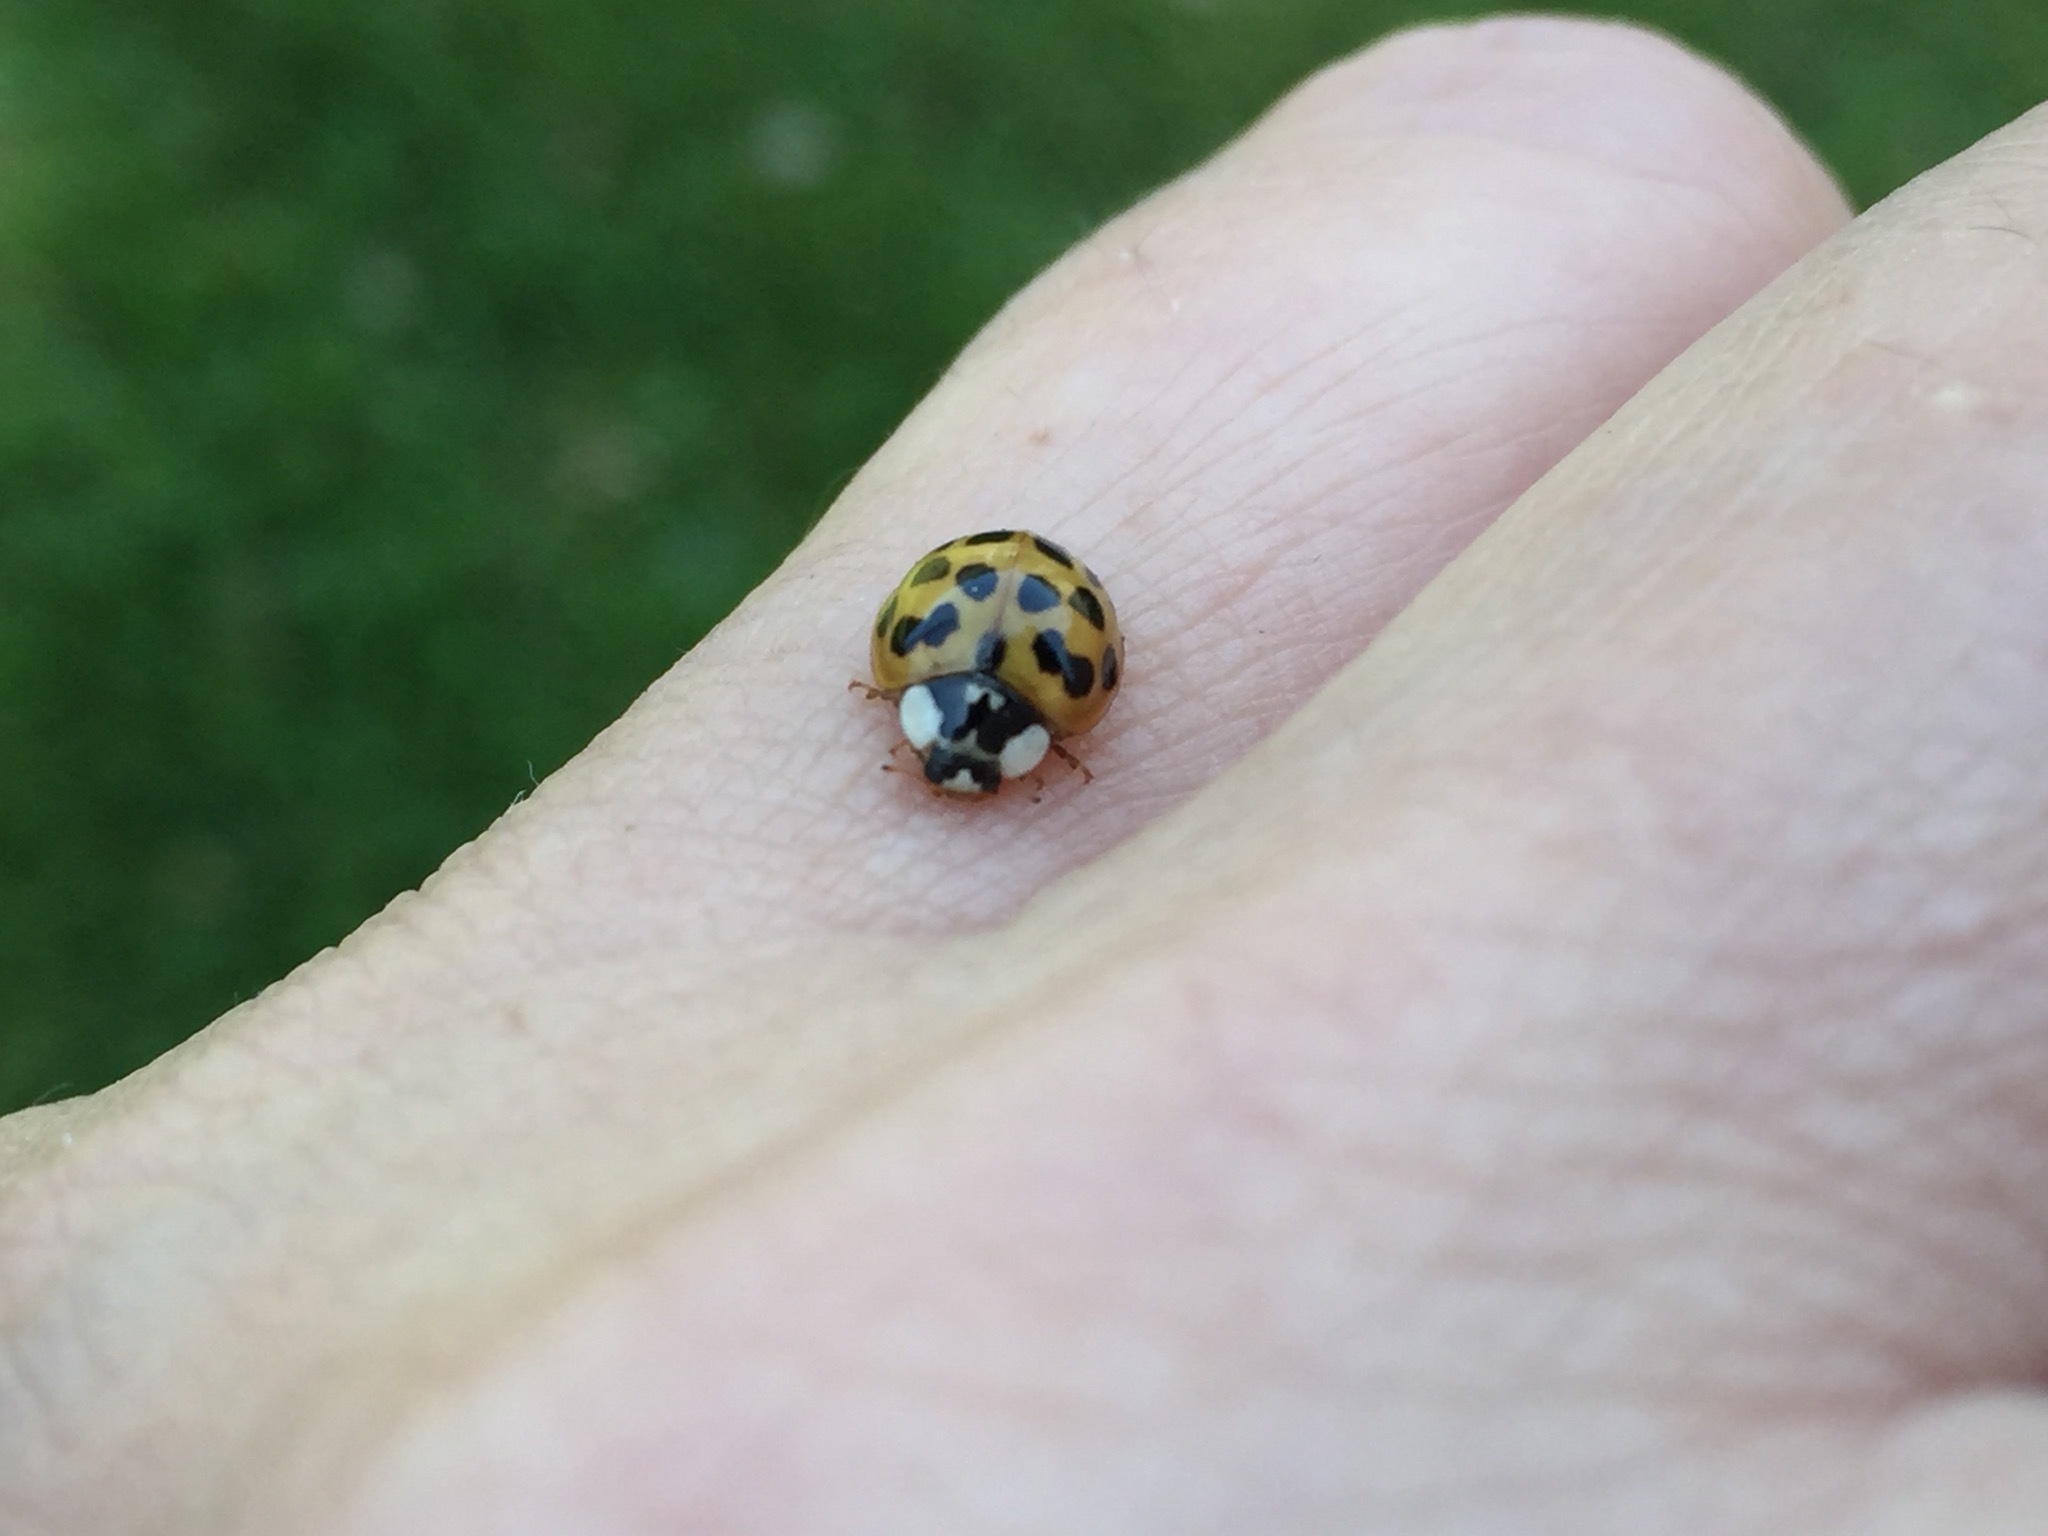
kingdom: Animalia
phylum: Arthropoda
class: Insecta
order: Coleoptera
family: Coccinellidae
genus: Harmonia
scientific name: Harmonia axyridis
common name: Harlequin ladybird
